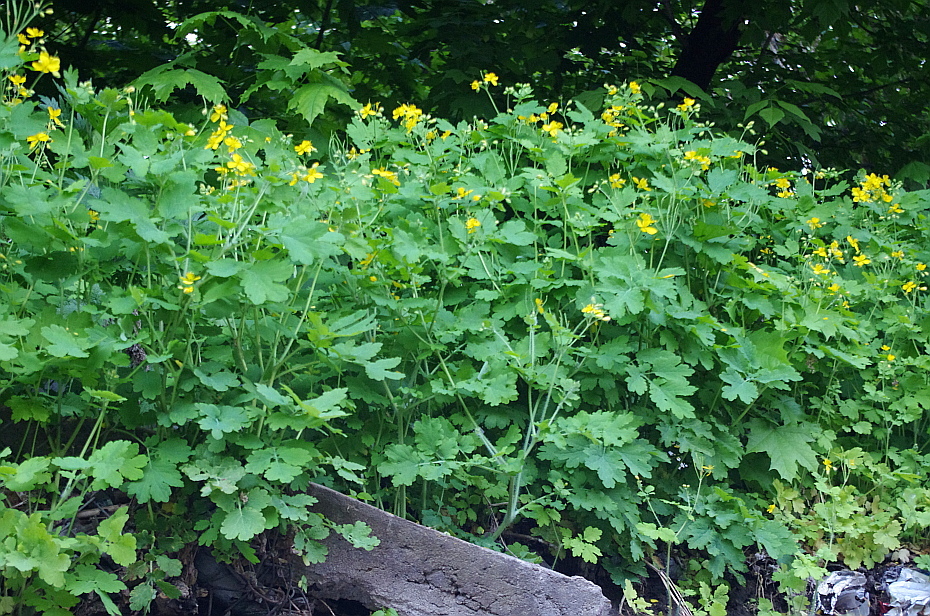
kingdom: Plantae
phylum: Tracheophyta
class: Magnoliopsida
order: Ranunculales
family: Papaveraceae
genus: Chelidonium
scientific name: Chelidonium majus
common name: Greater celandine
